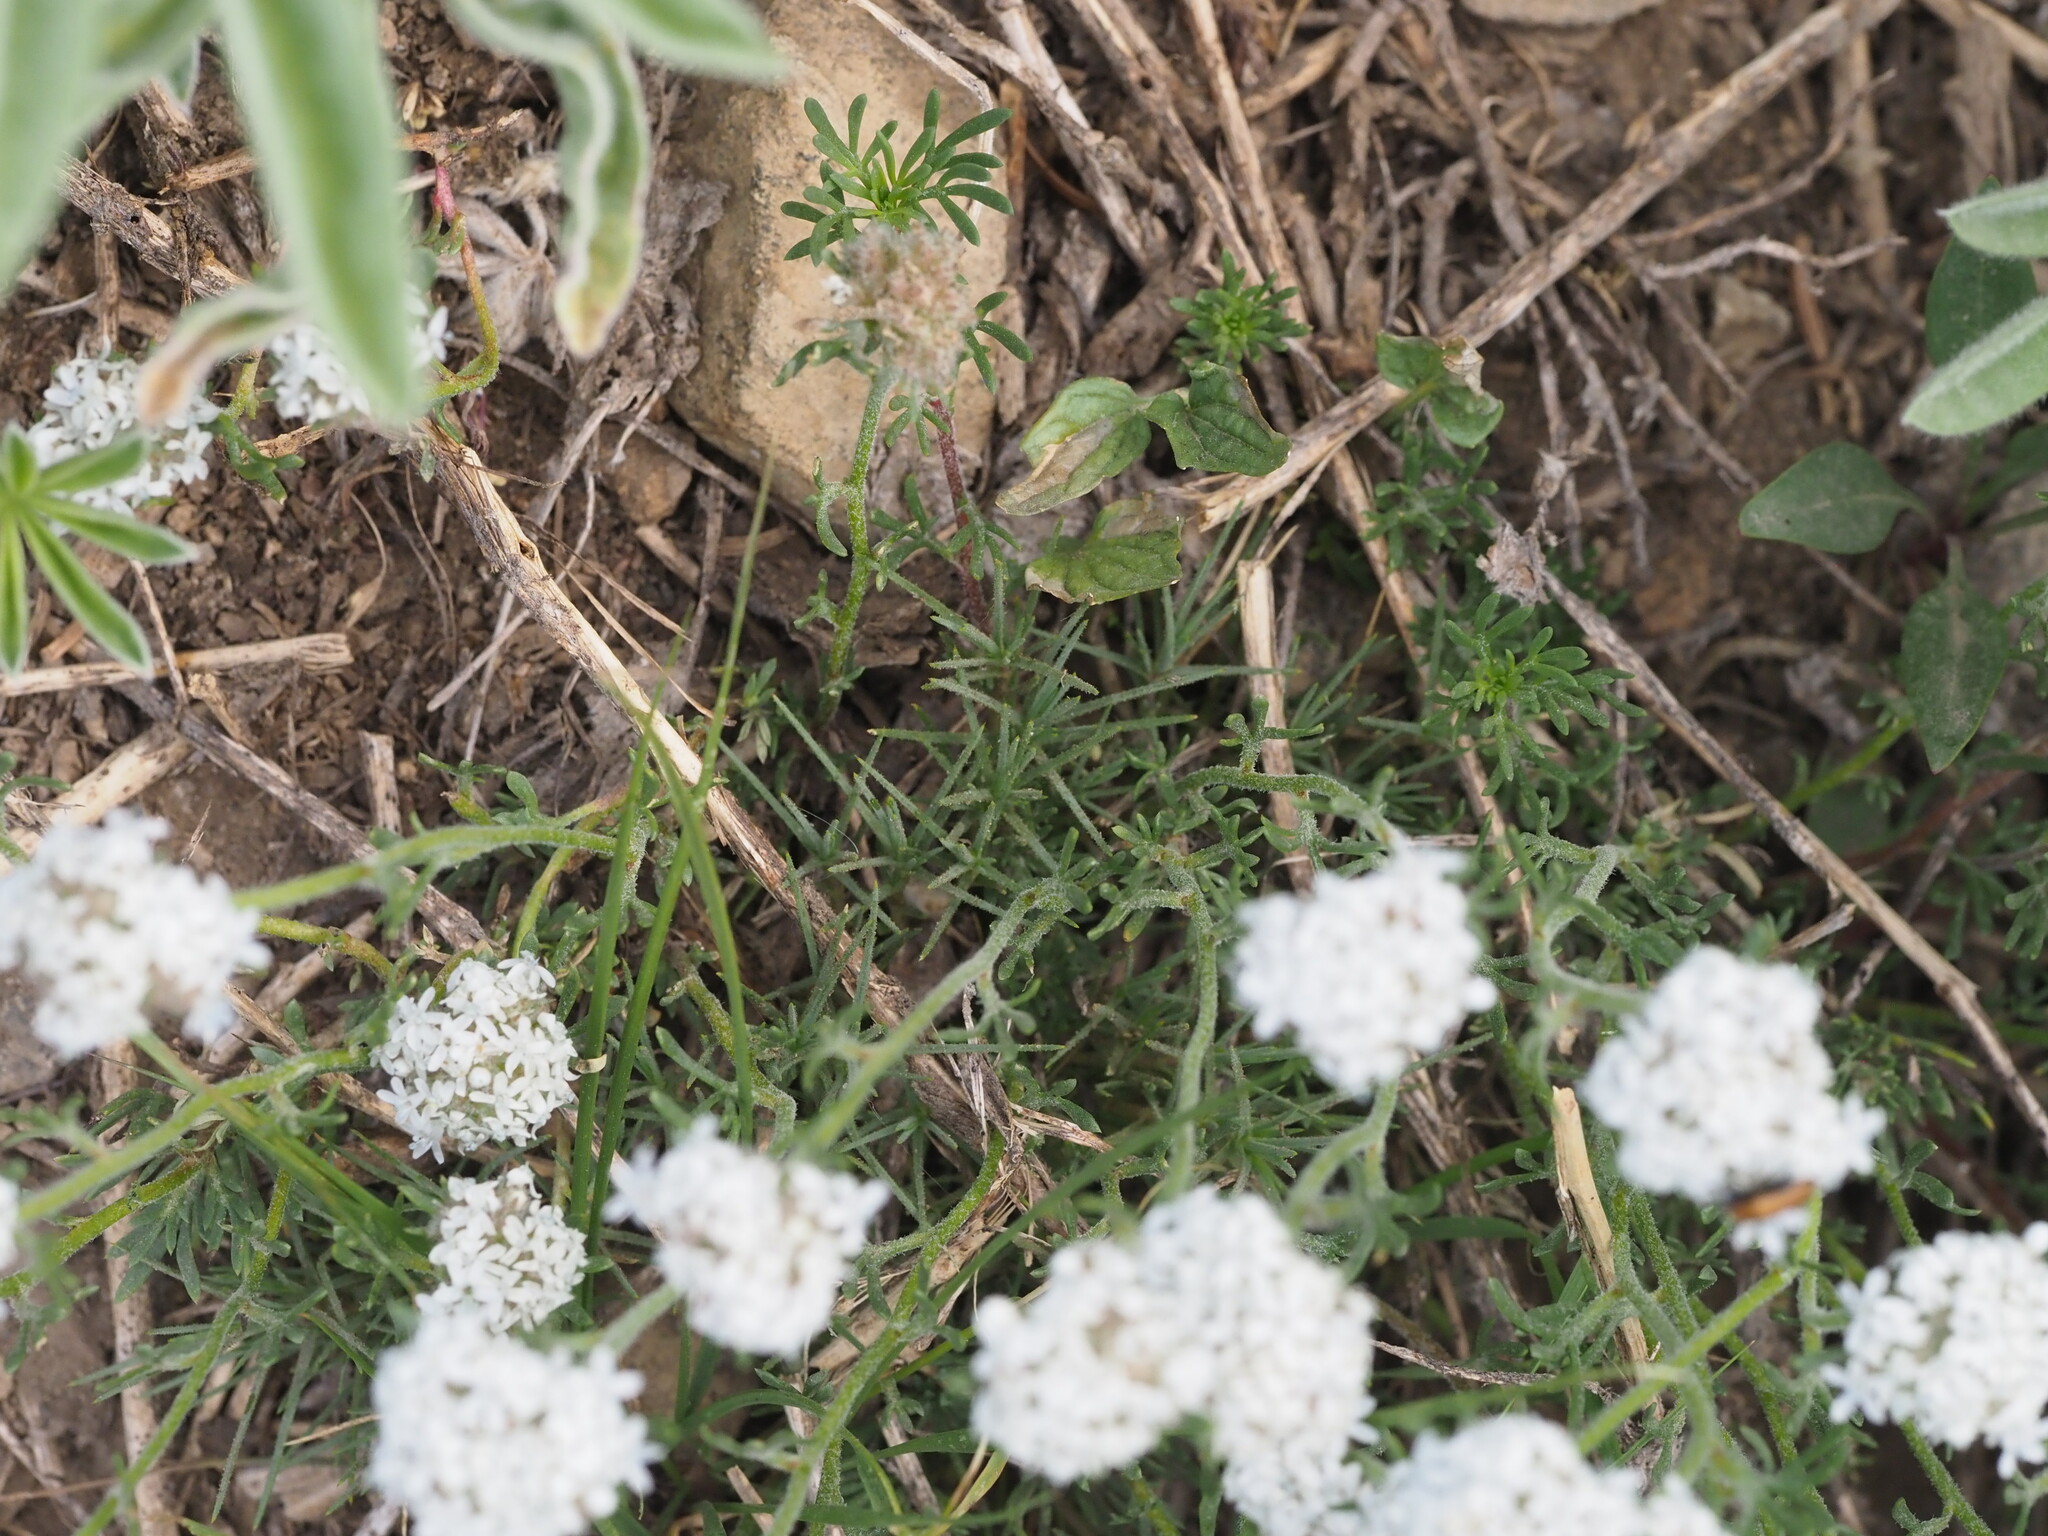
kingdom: Plantae
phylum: Tracheophyta
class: Magnoliopsida
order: Ericales
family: Polemoniaceae
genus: Ipomopsis
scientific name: Ipomopsis congesta
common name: Ball-head gilia
